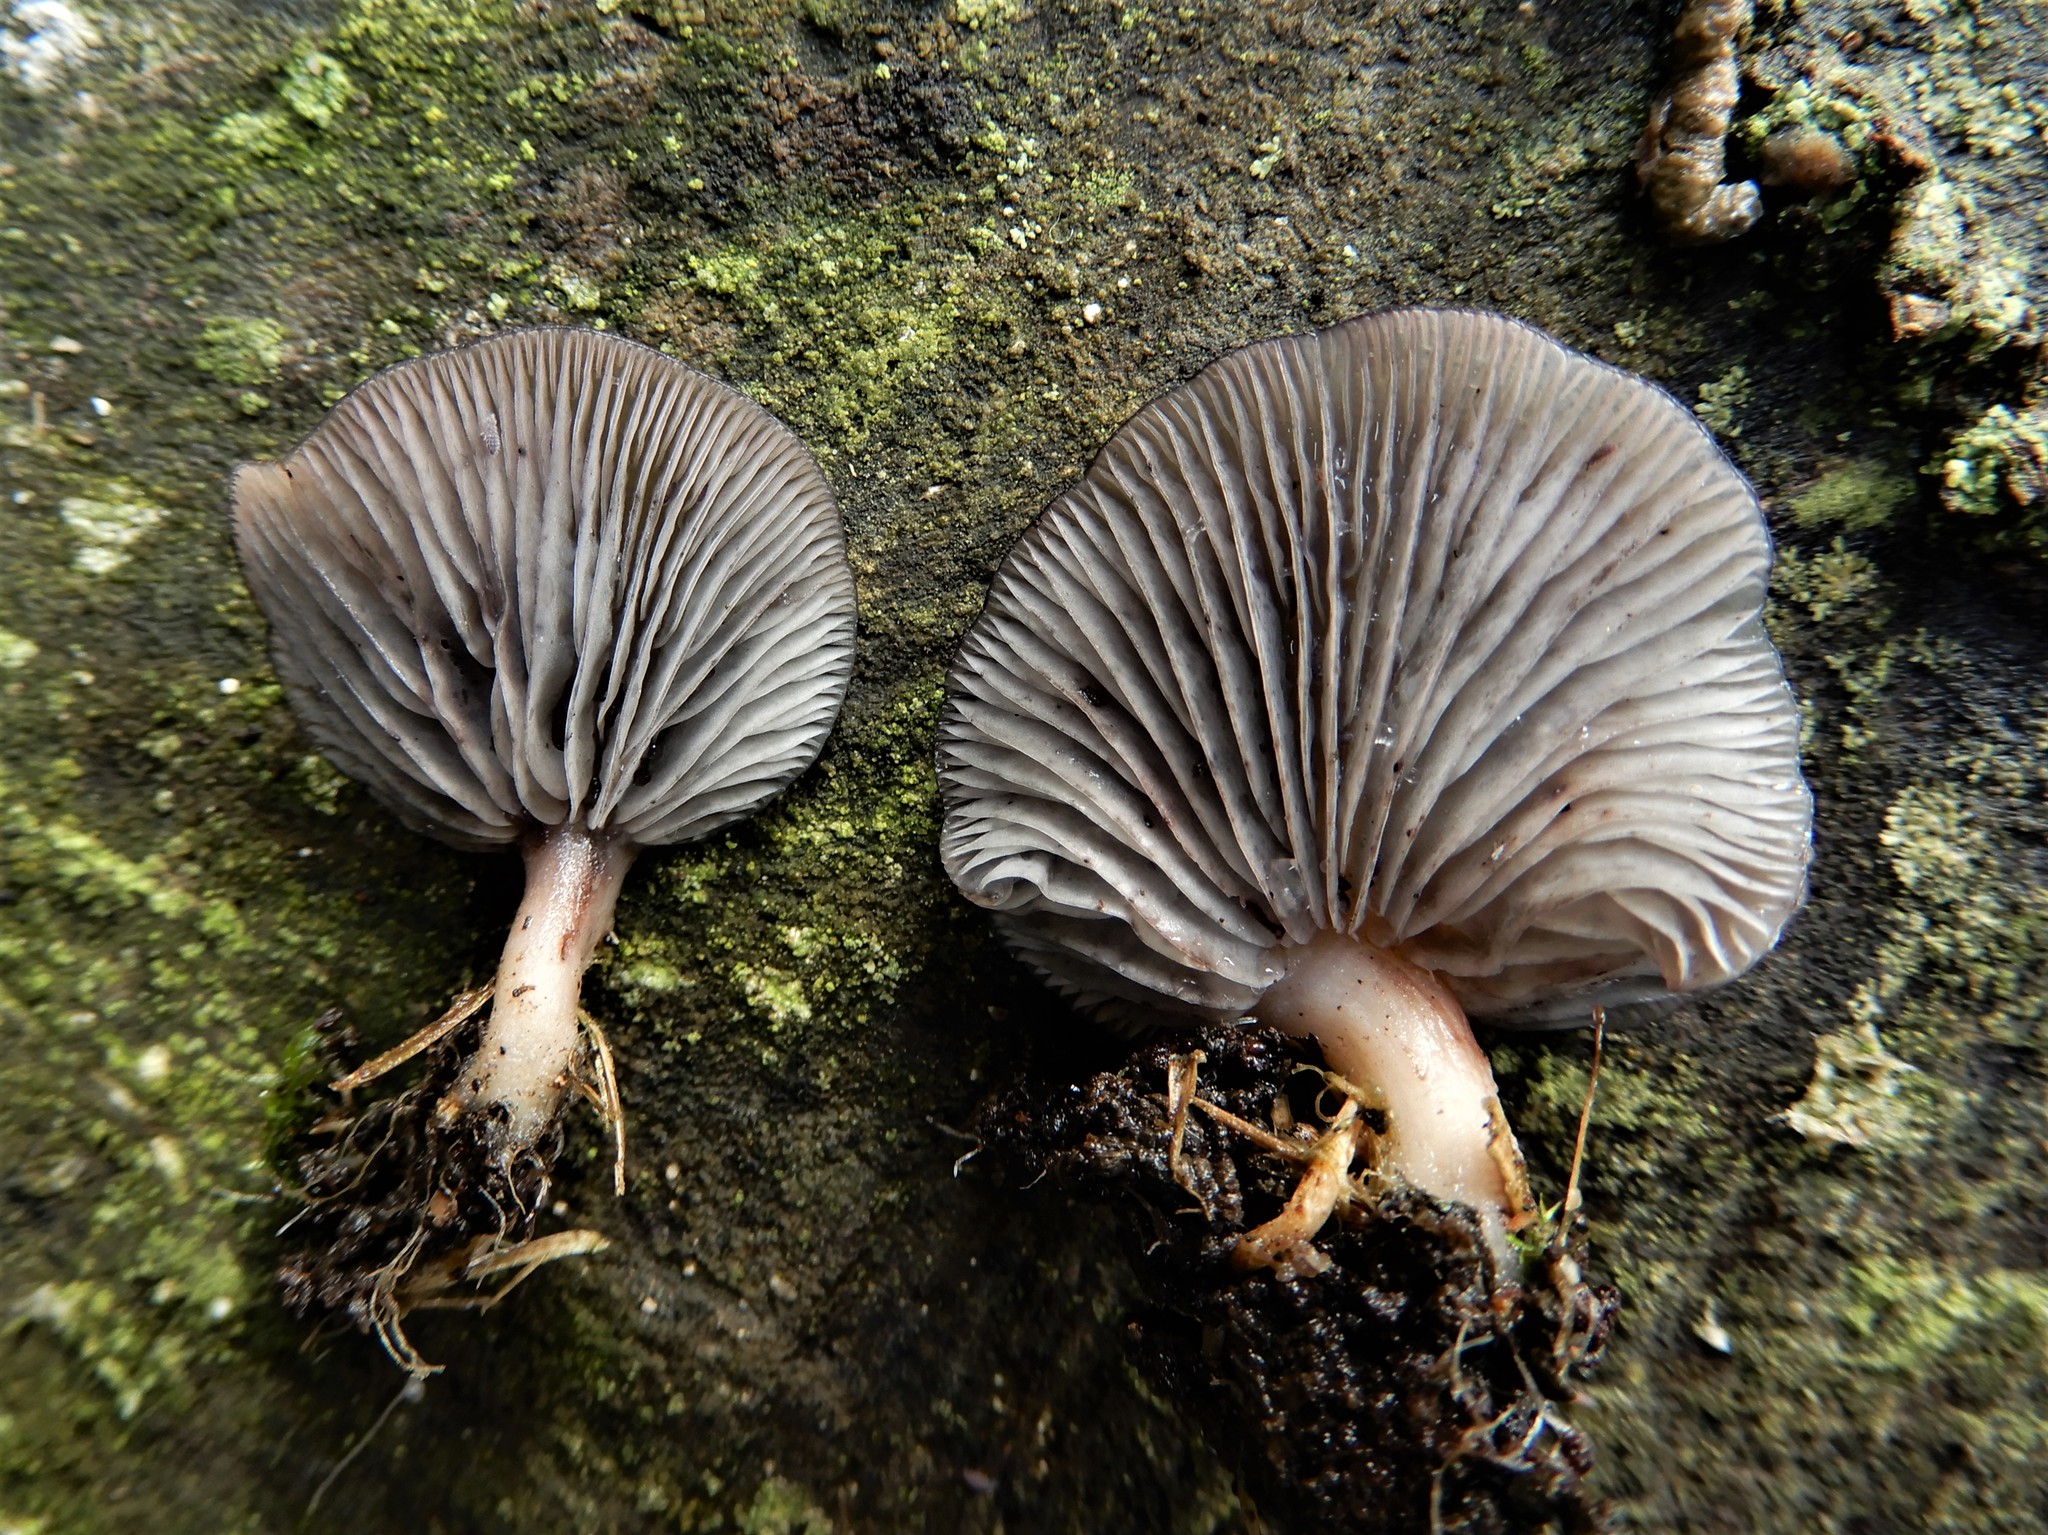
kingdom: Fungi
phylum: Basidiomycota
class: Agaricomycetes
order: Agaricales
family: Mycenaceae
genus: Panellus
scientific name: Panellus longinquus
